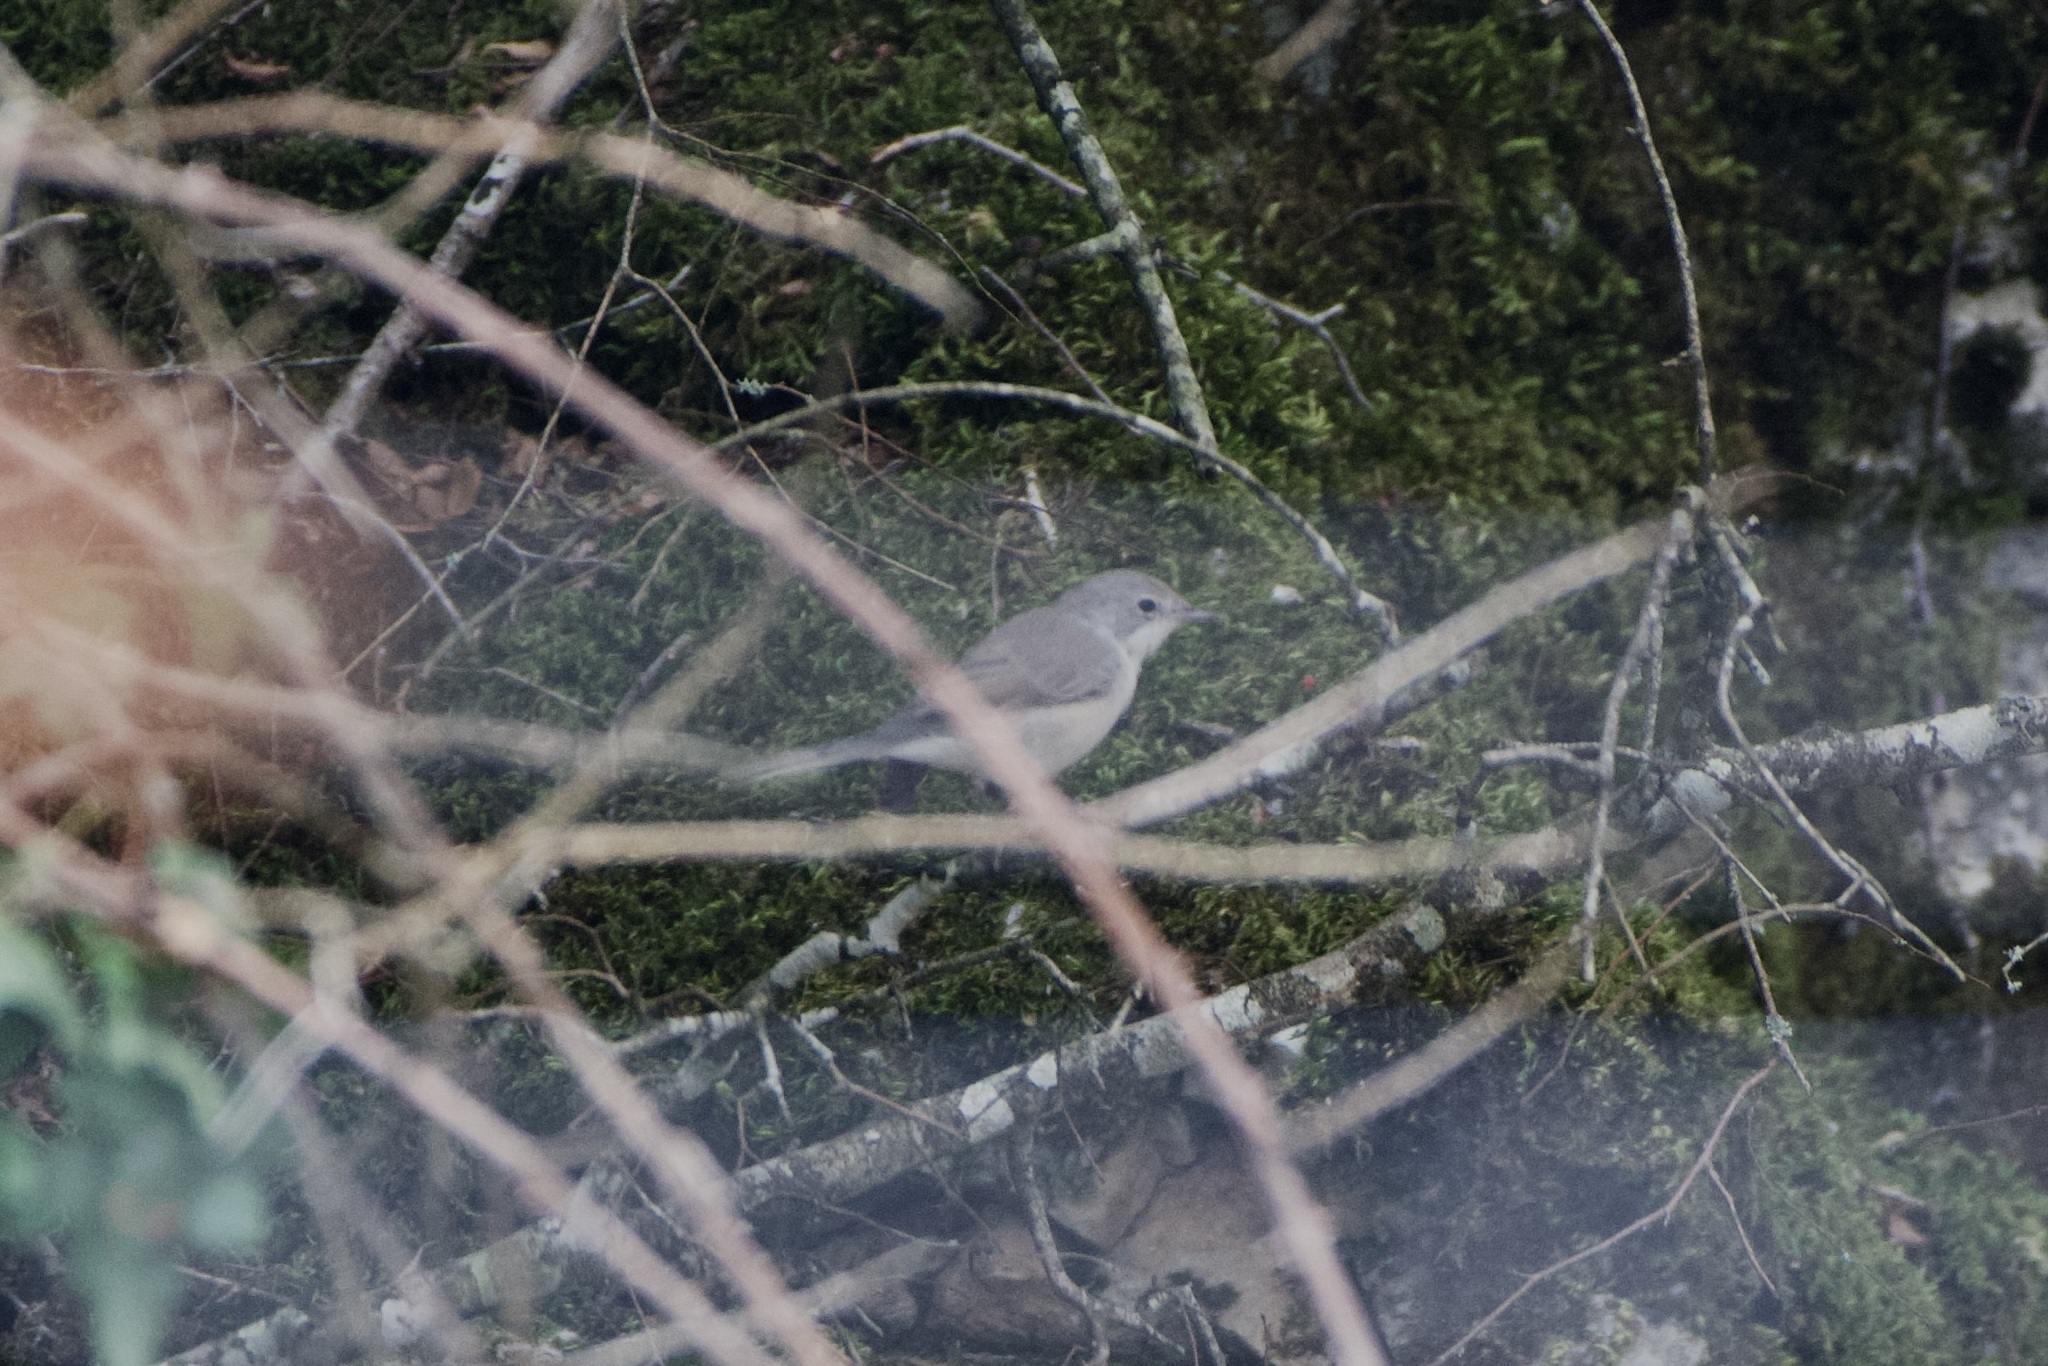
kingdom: Animalia
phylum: Chordata
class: Aves
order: Passeriformes
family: Muscicapidae
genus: Muscicapa
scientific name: Muscicapa striata
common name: Spotted flycatcher
